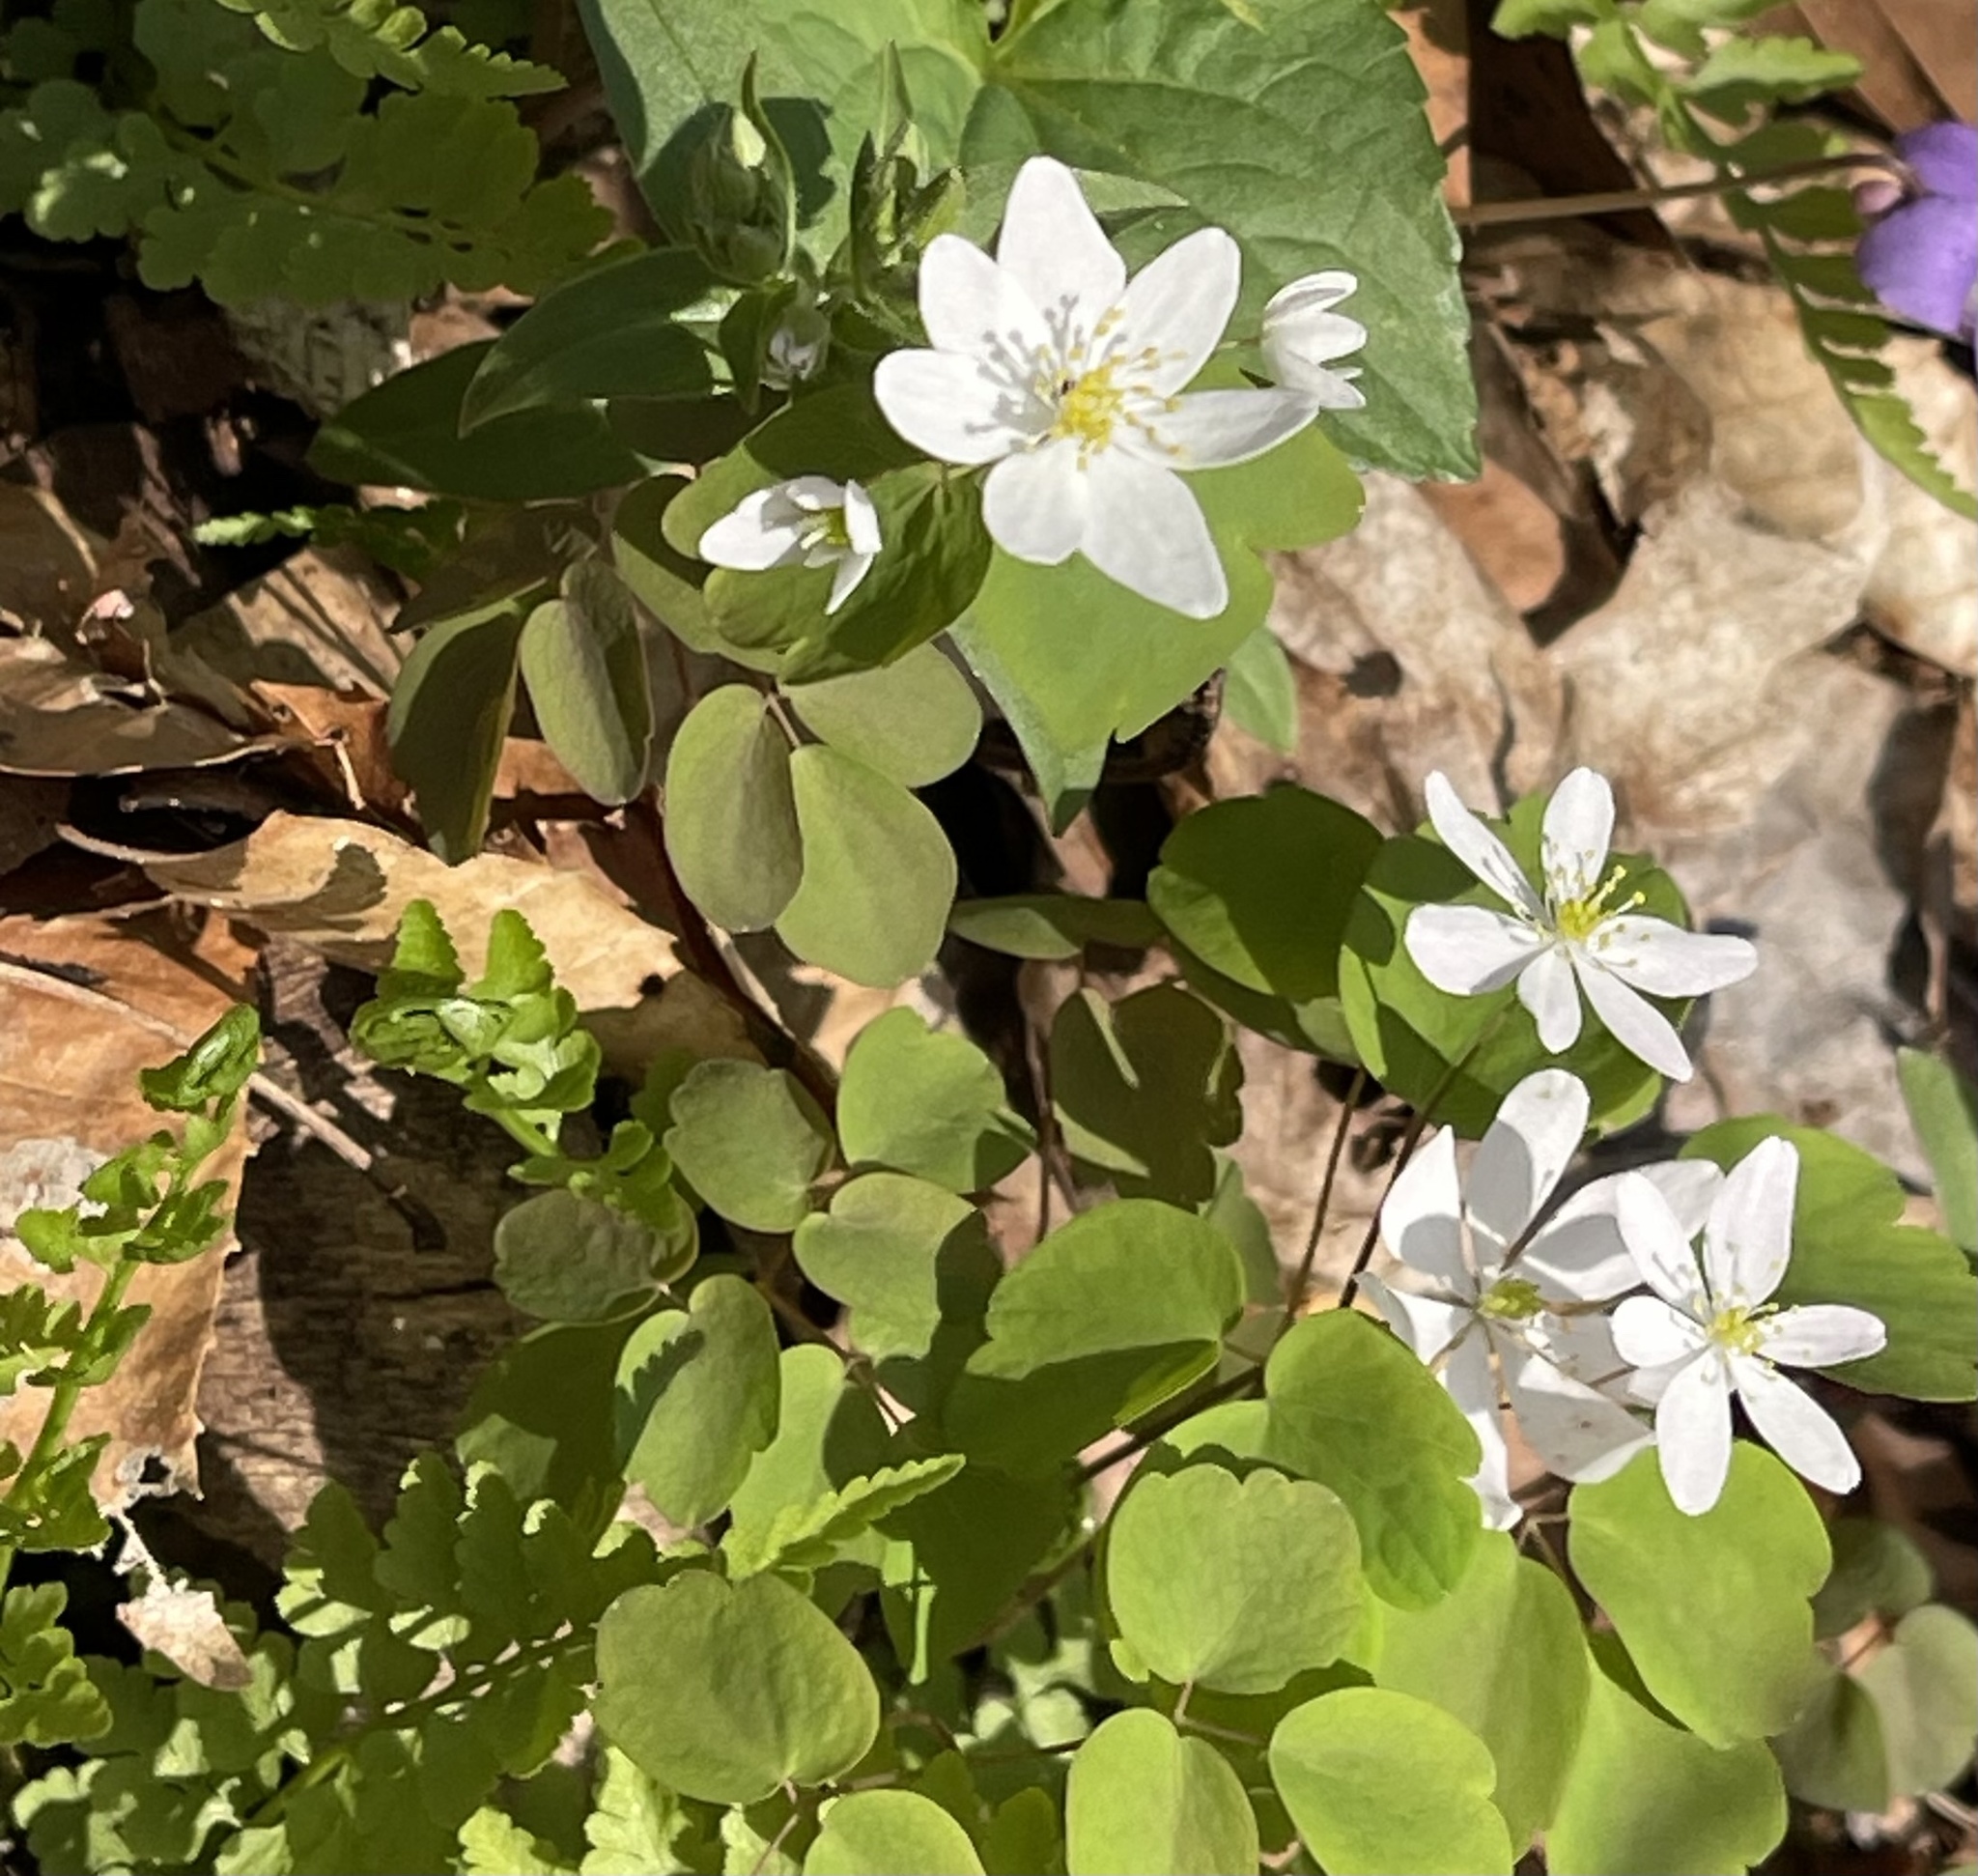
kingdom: Plantae
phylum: Tracheophyta
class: Magnoliopsida
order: Ranunculales
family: Ranunculaceae
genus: Thalictrum
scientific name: Thalictrum thalictroides
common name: Rue-anemone
